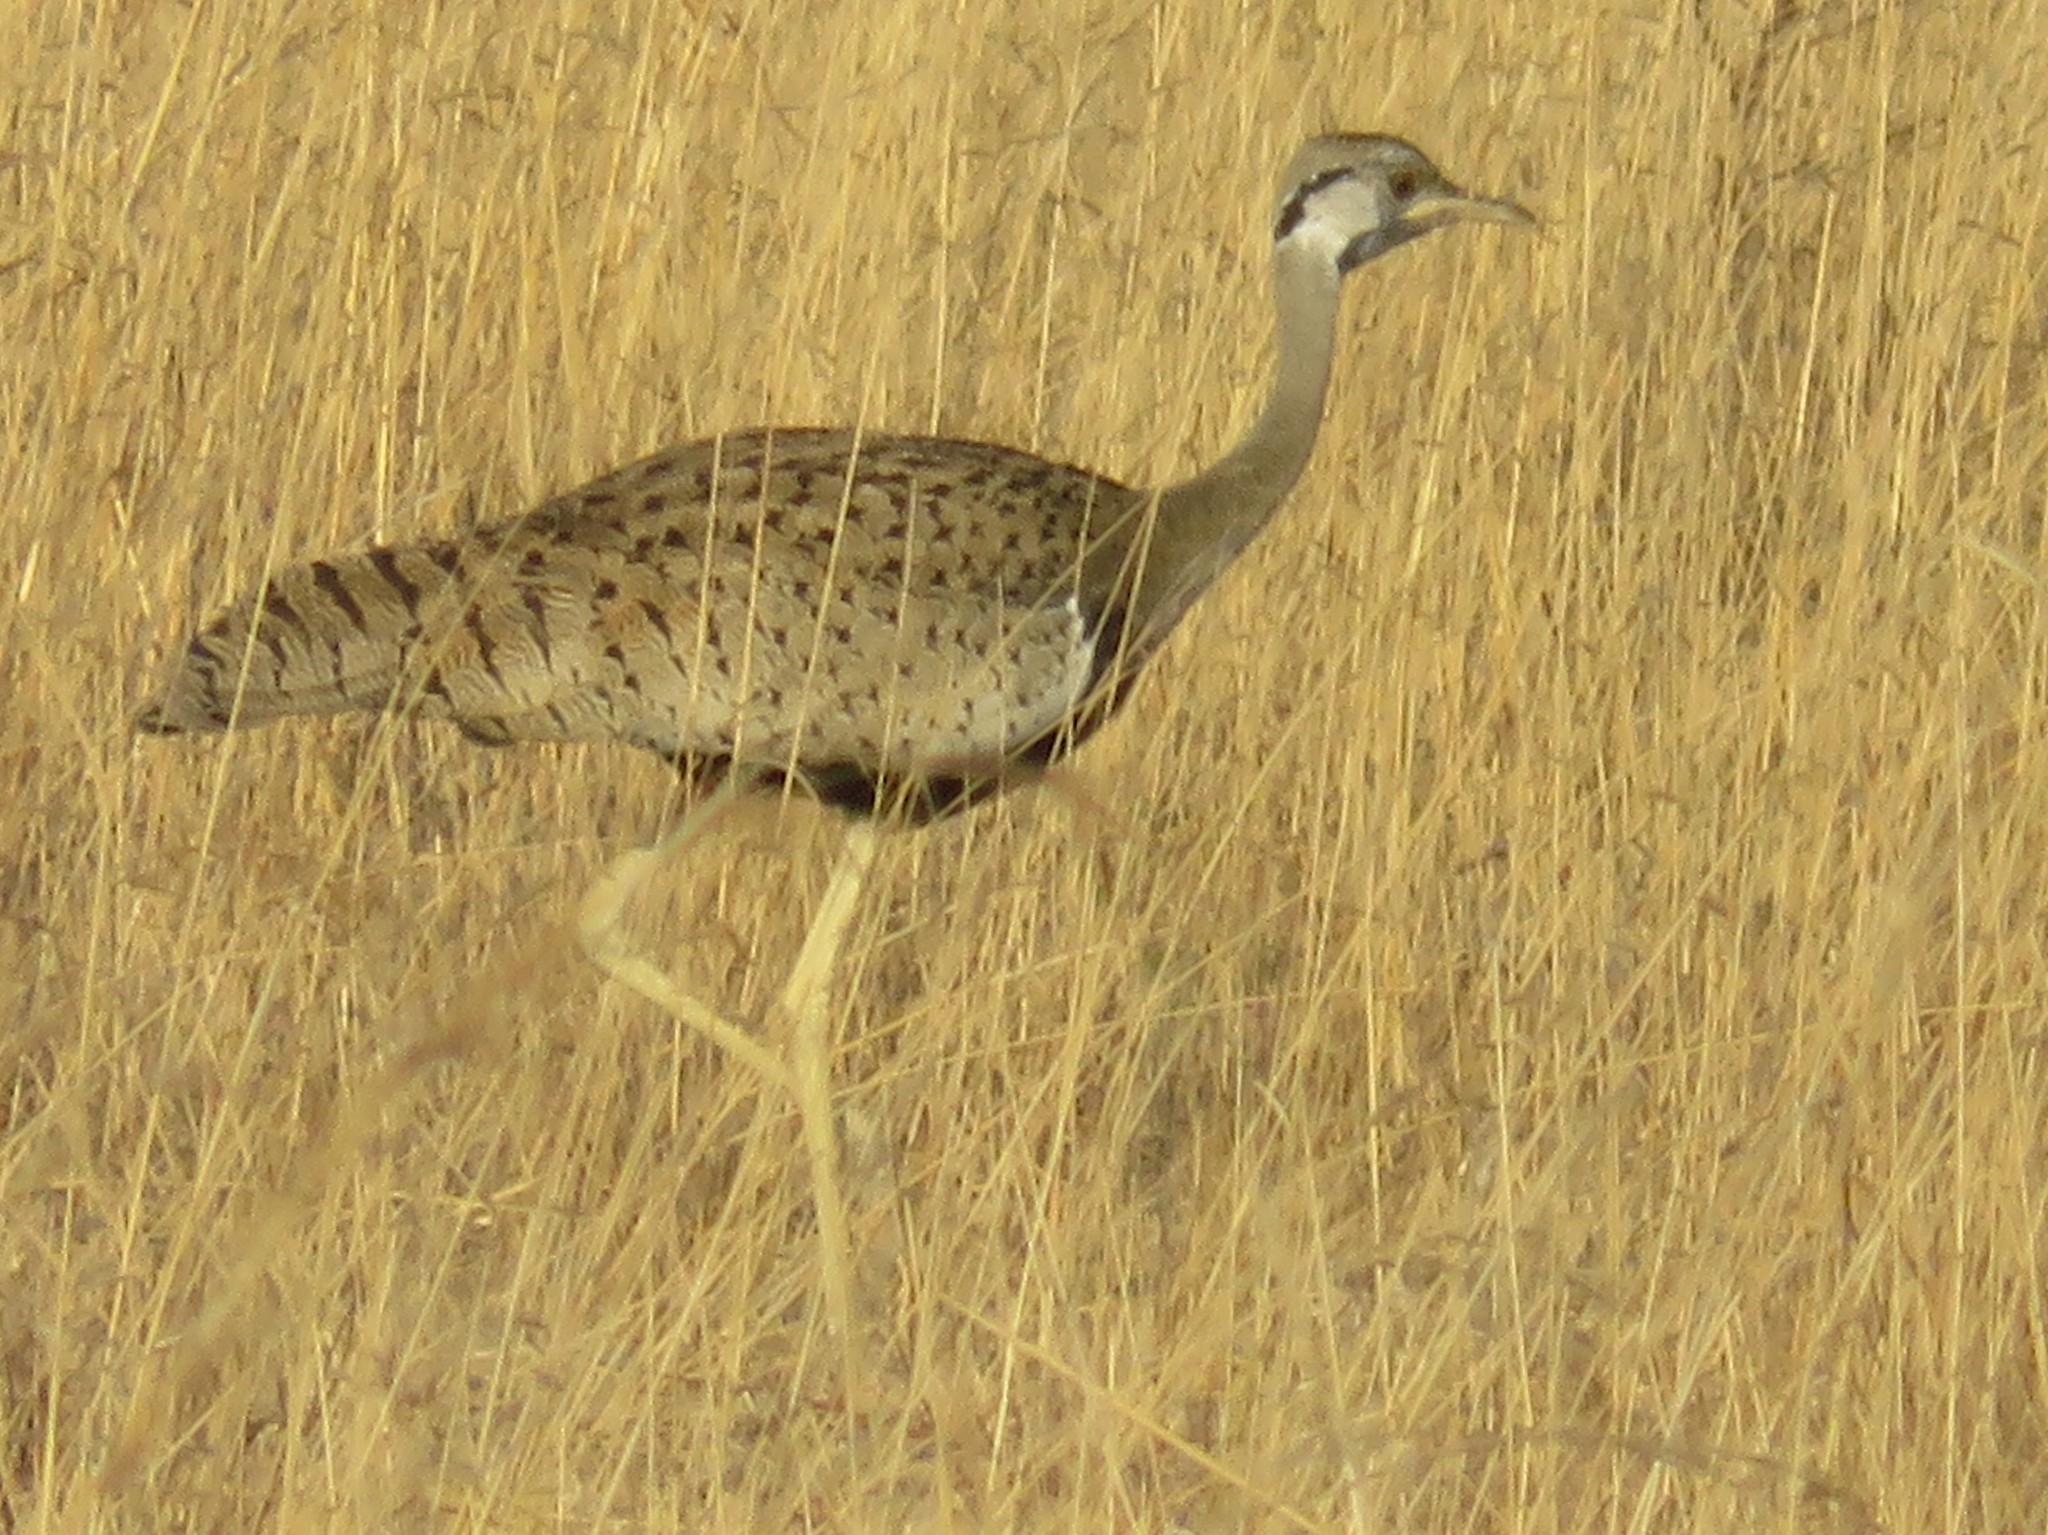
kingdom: Animalia
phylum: Chordata
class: Aves
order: Otidiformes
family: Otididae
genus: Lissotis
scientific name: Lissotis melanogaster
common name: Black-bellied bustard
